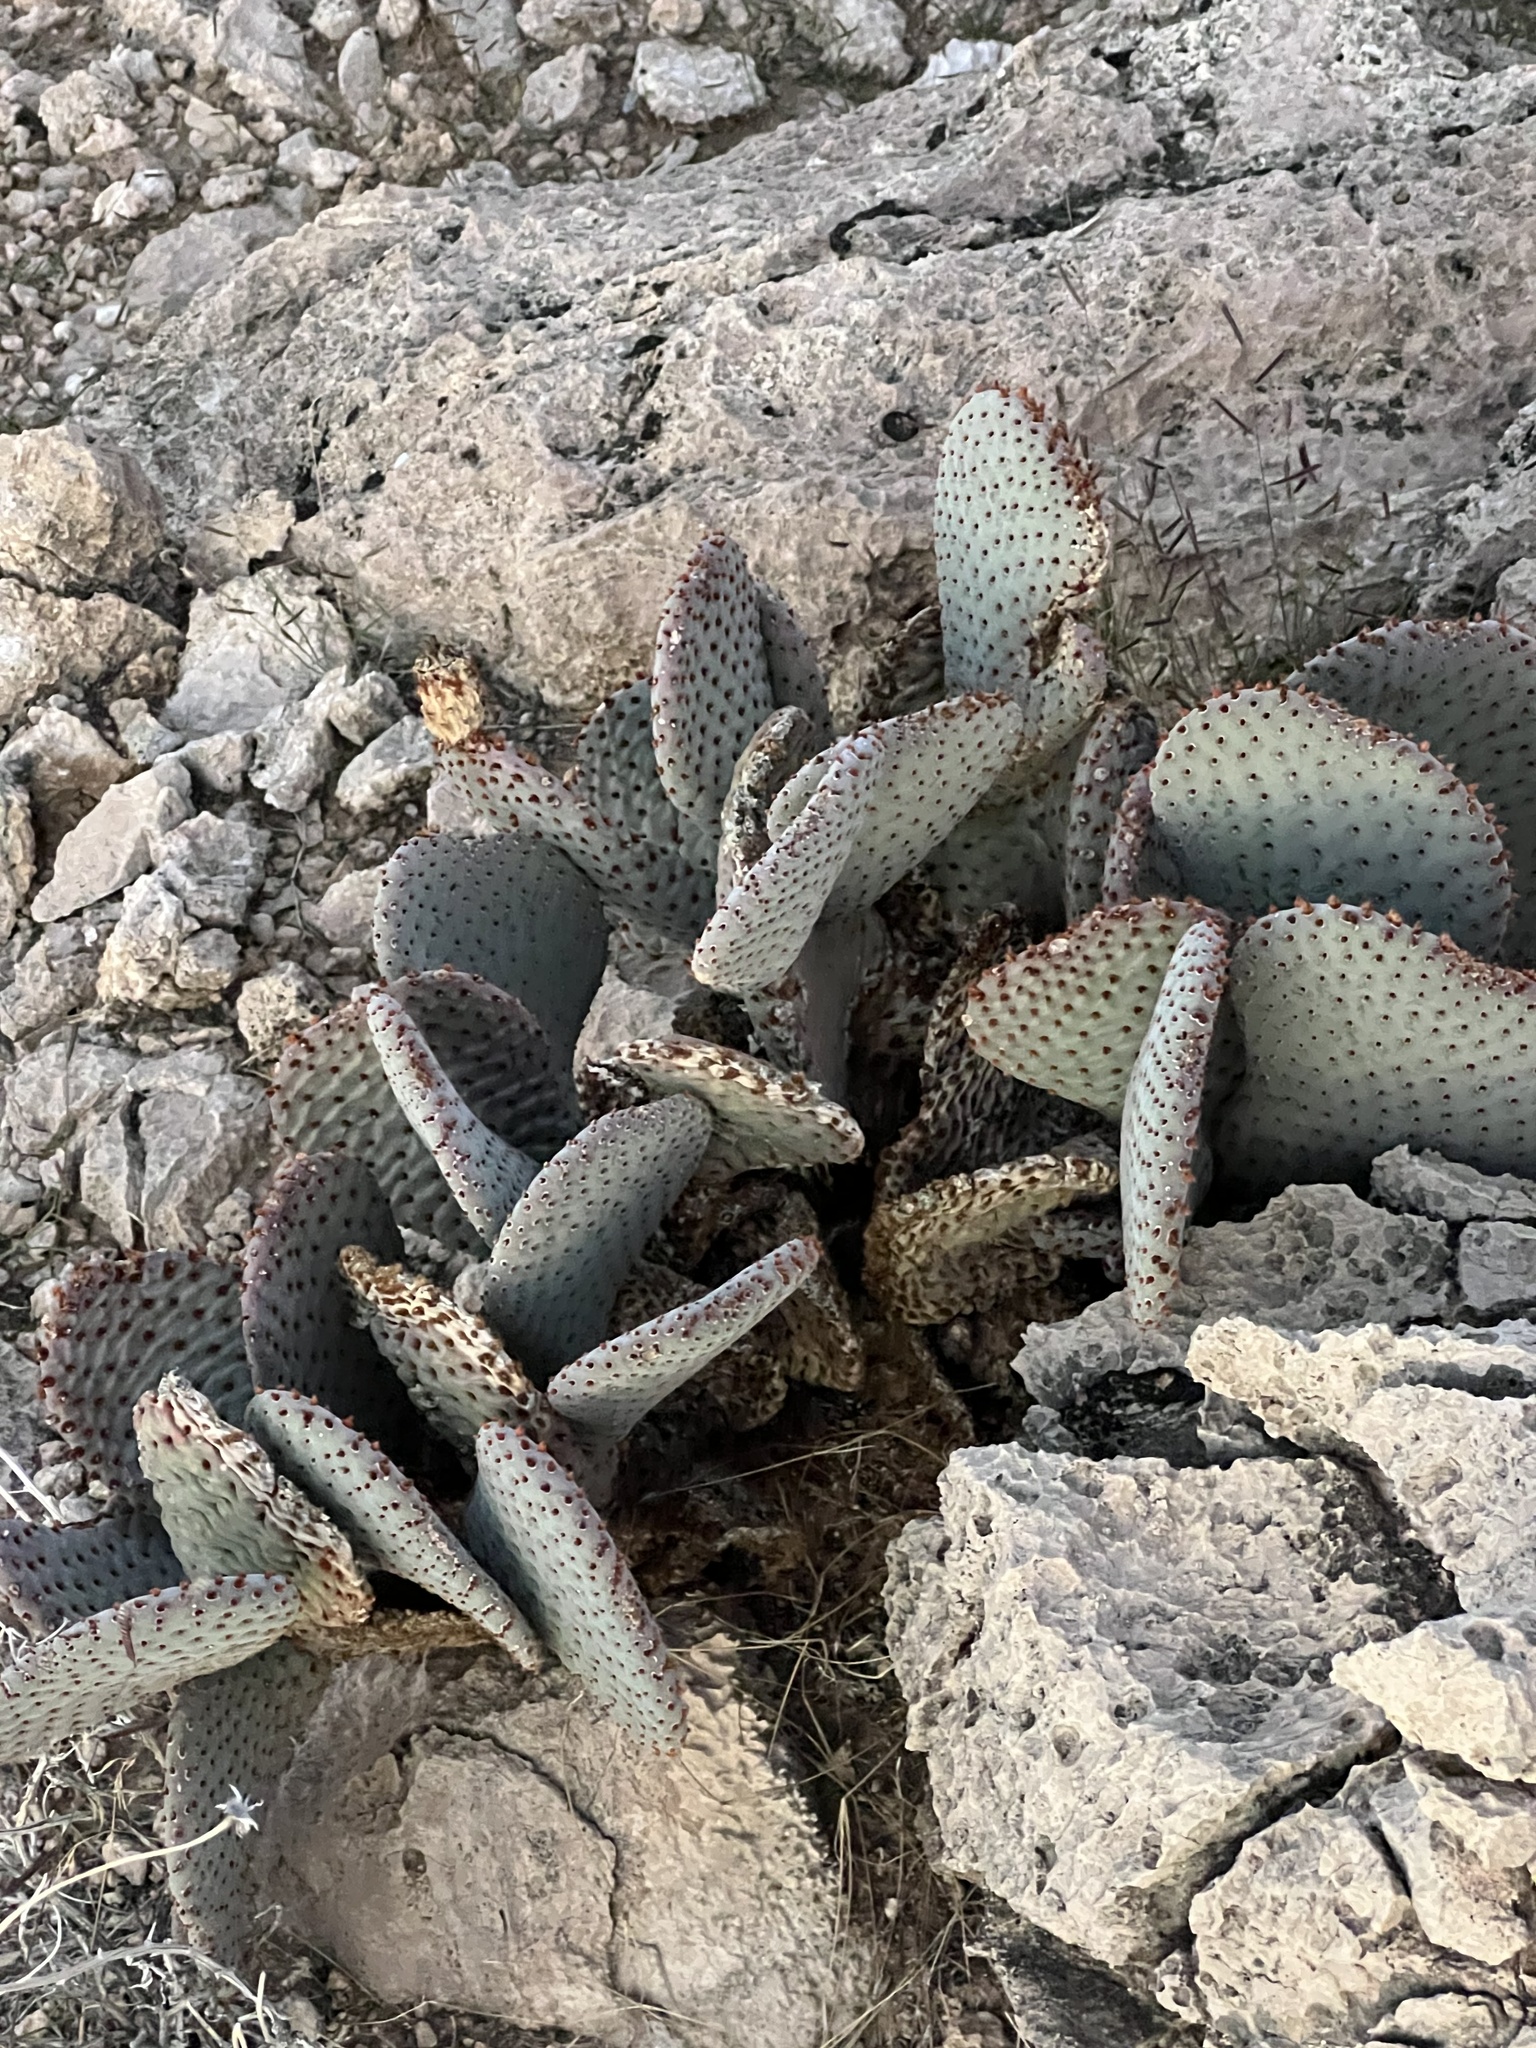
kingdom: Plantae
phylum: Tracheophyta
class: Magnoliopsida
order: Caryophyllales
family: Cactaceae
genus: Opuntia
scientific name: Opuntia basilaris
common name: Beavertail prickly-pear
